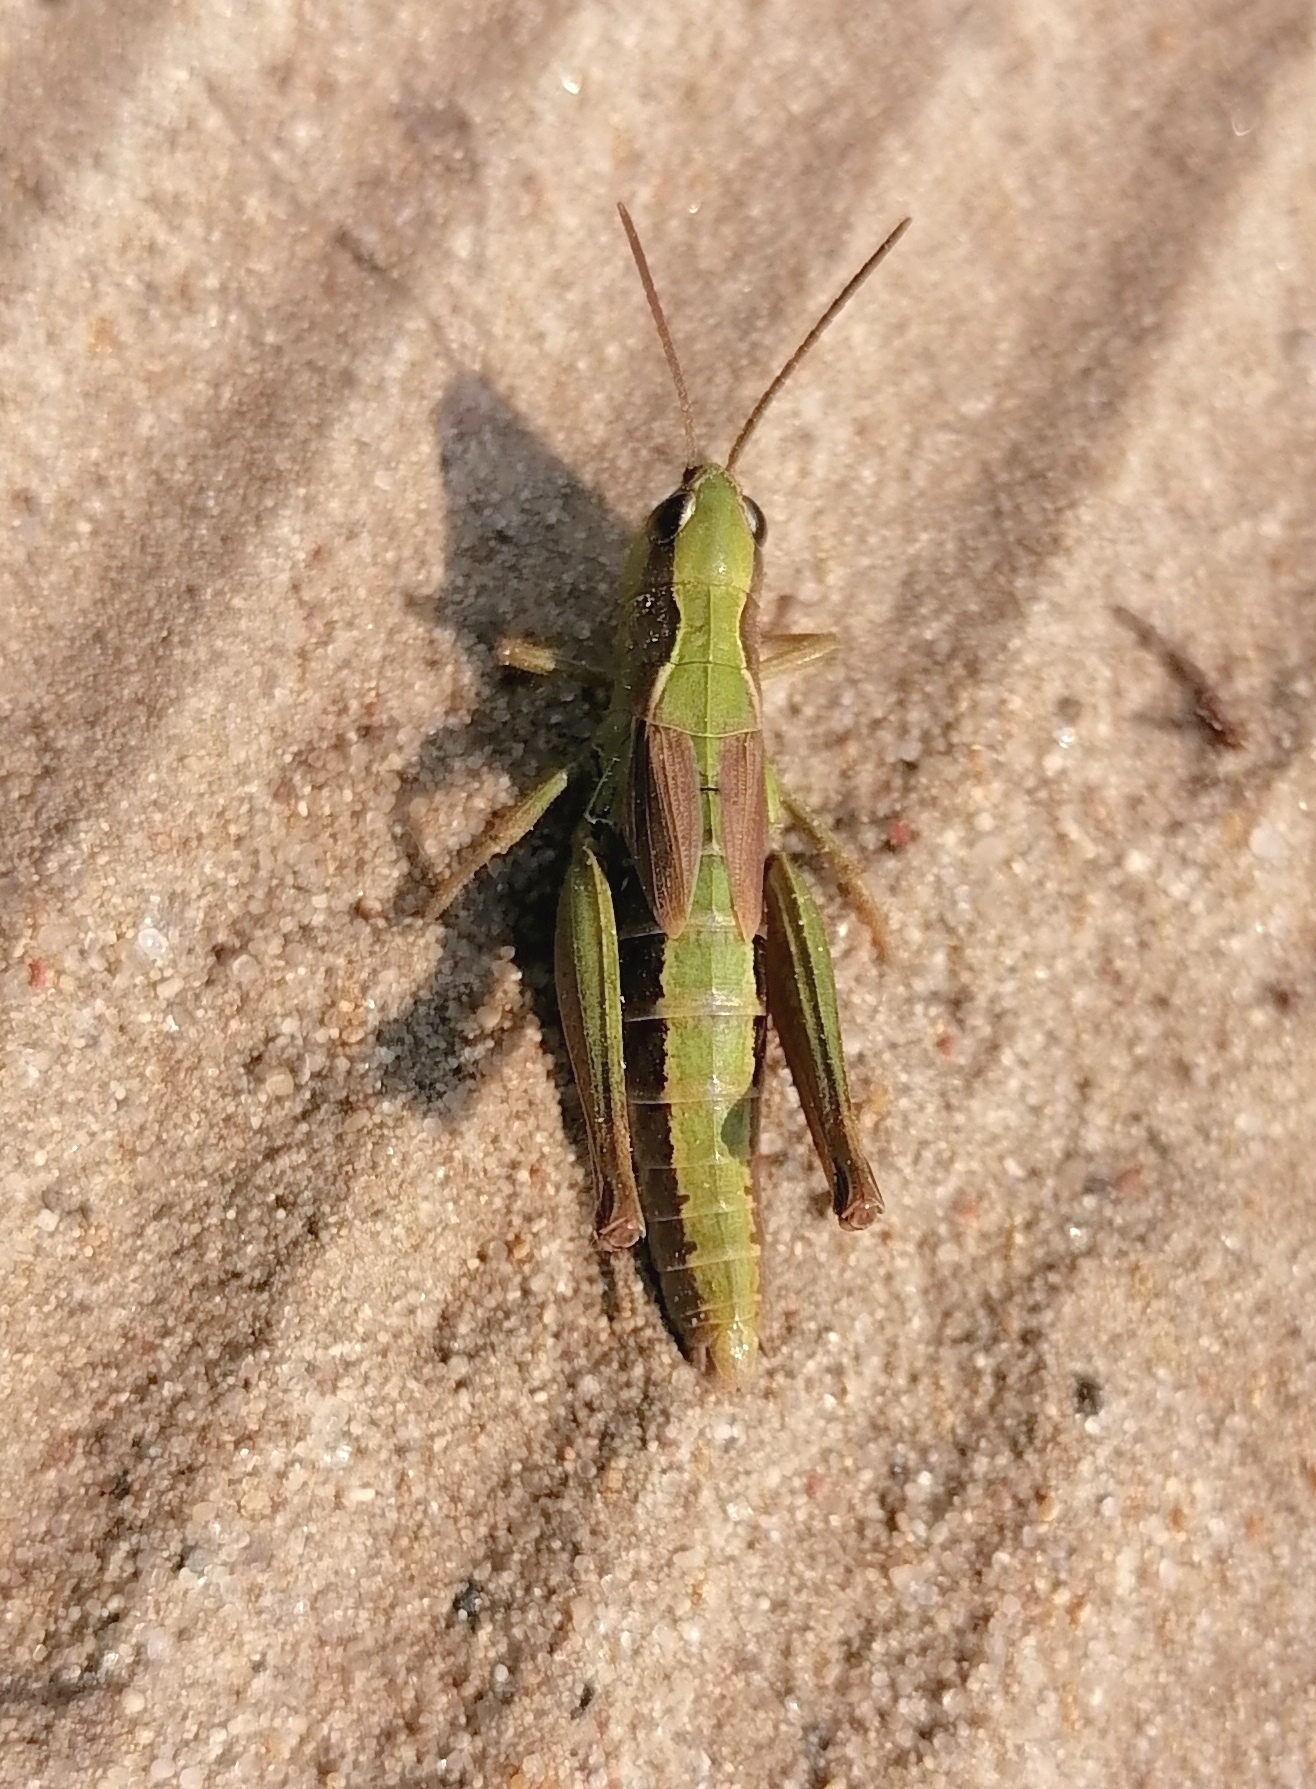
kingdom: Animalia
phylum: Arthropoda
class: Insecta
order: Orthoptera
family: Acrididae
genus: Chorthippus
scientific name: Chorthippus fallax
